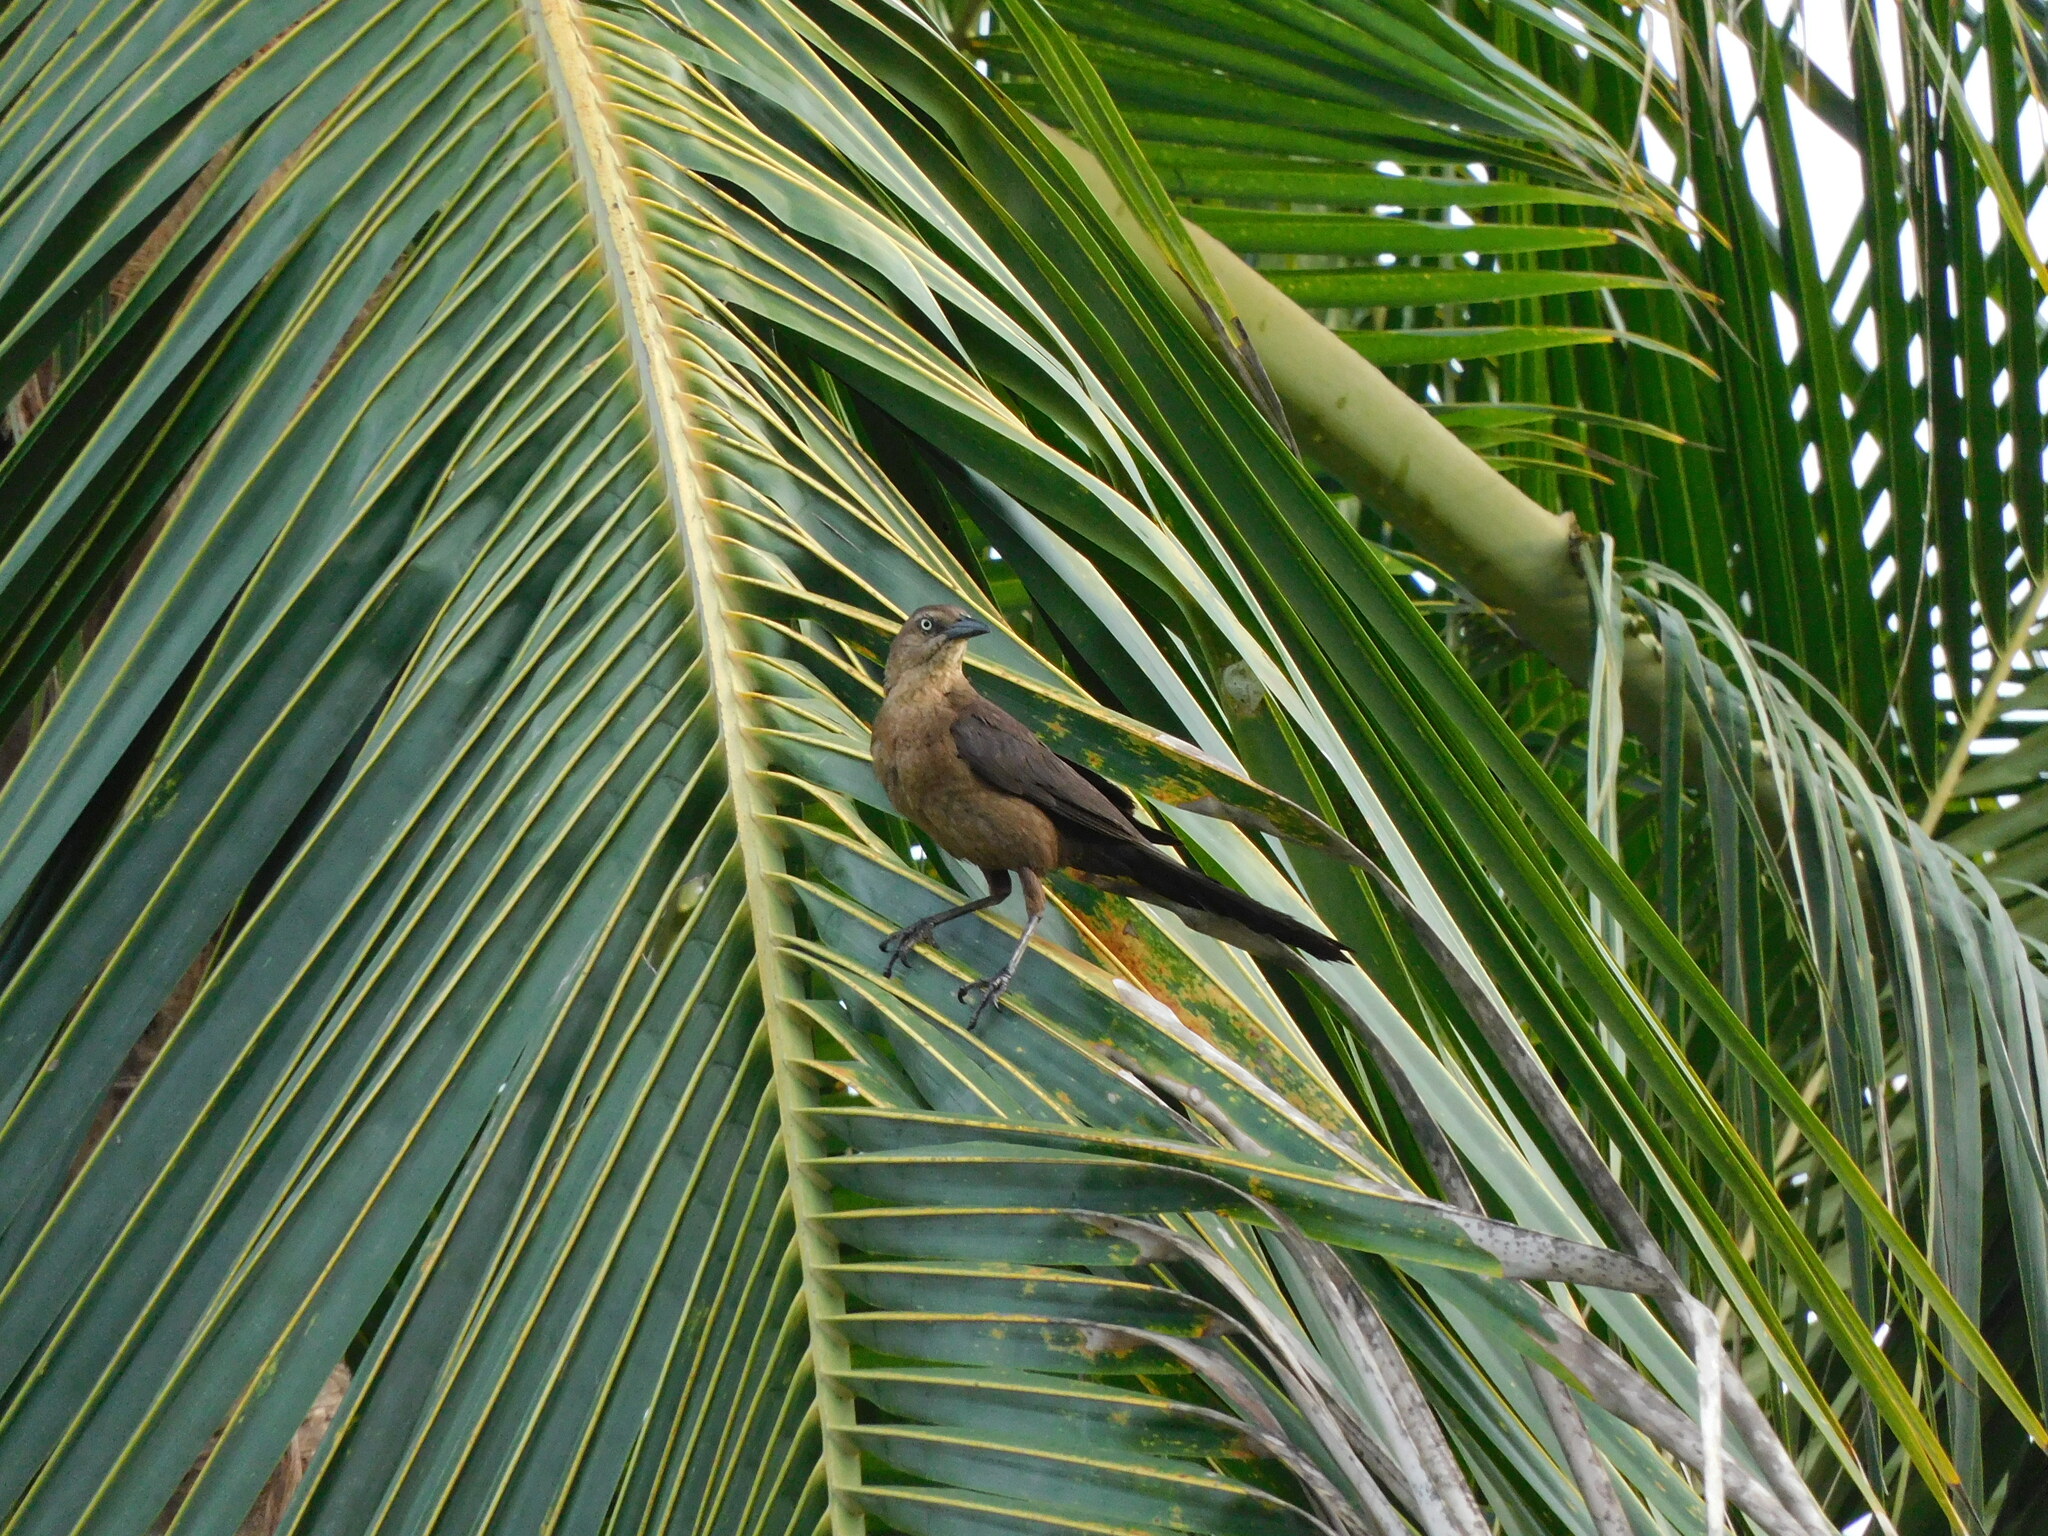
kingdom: Animalia
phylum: Chordata
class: Aves
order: Passeriformes
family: Icteridae
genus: Quiscalus
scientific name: Quiscalus mexicanus
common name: Great-tailed grackle
